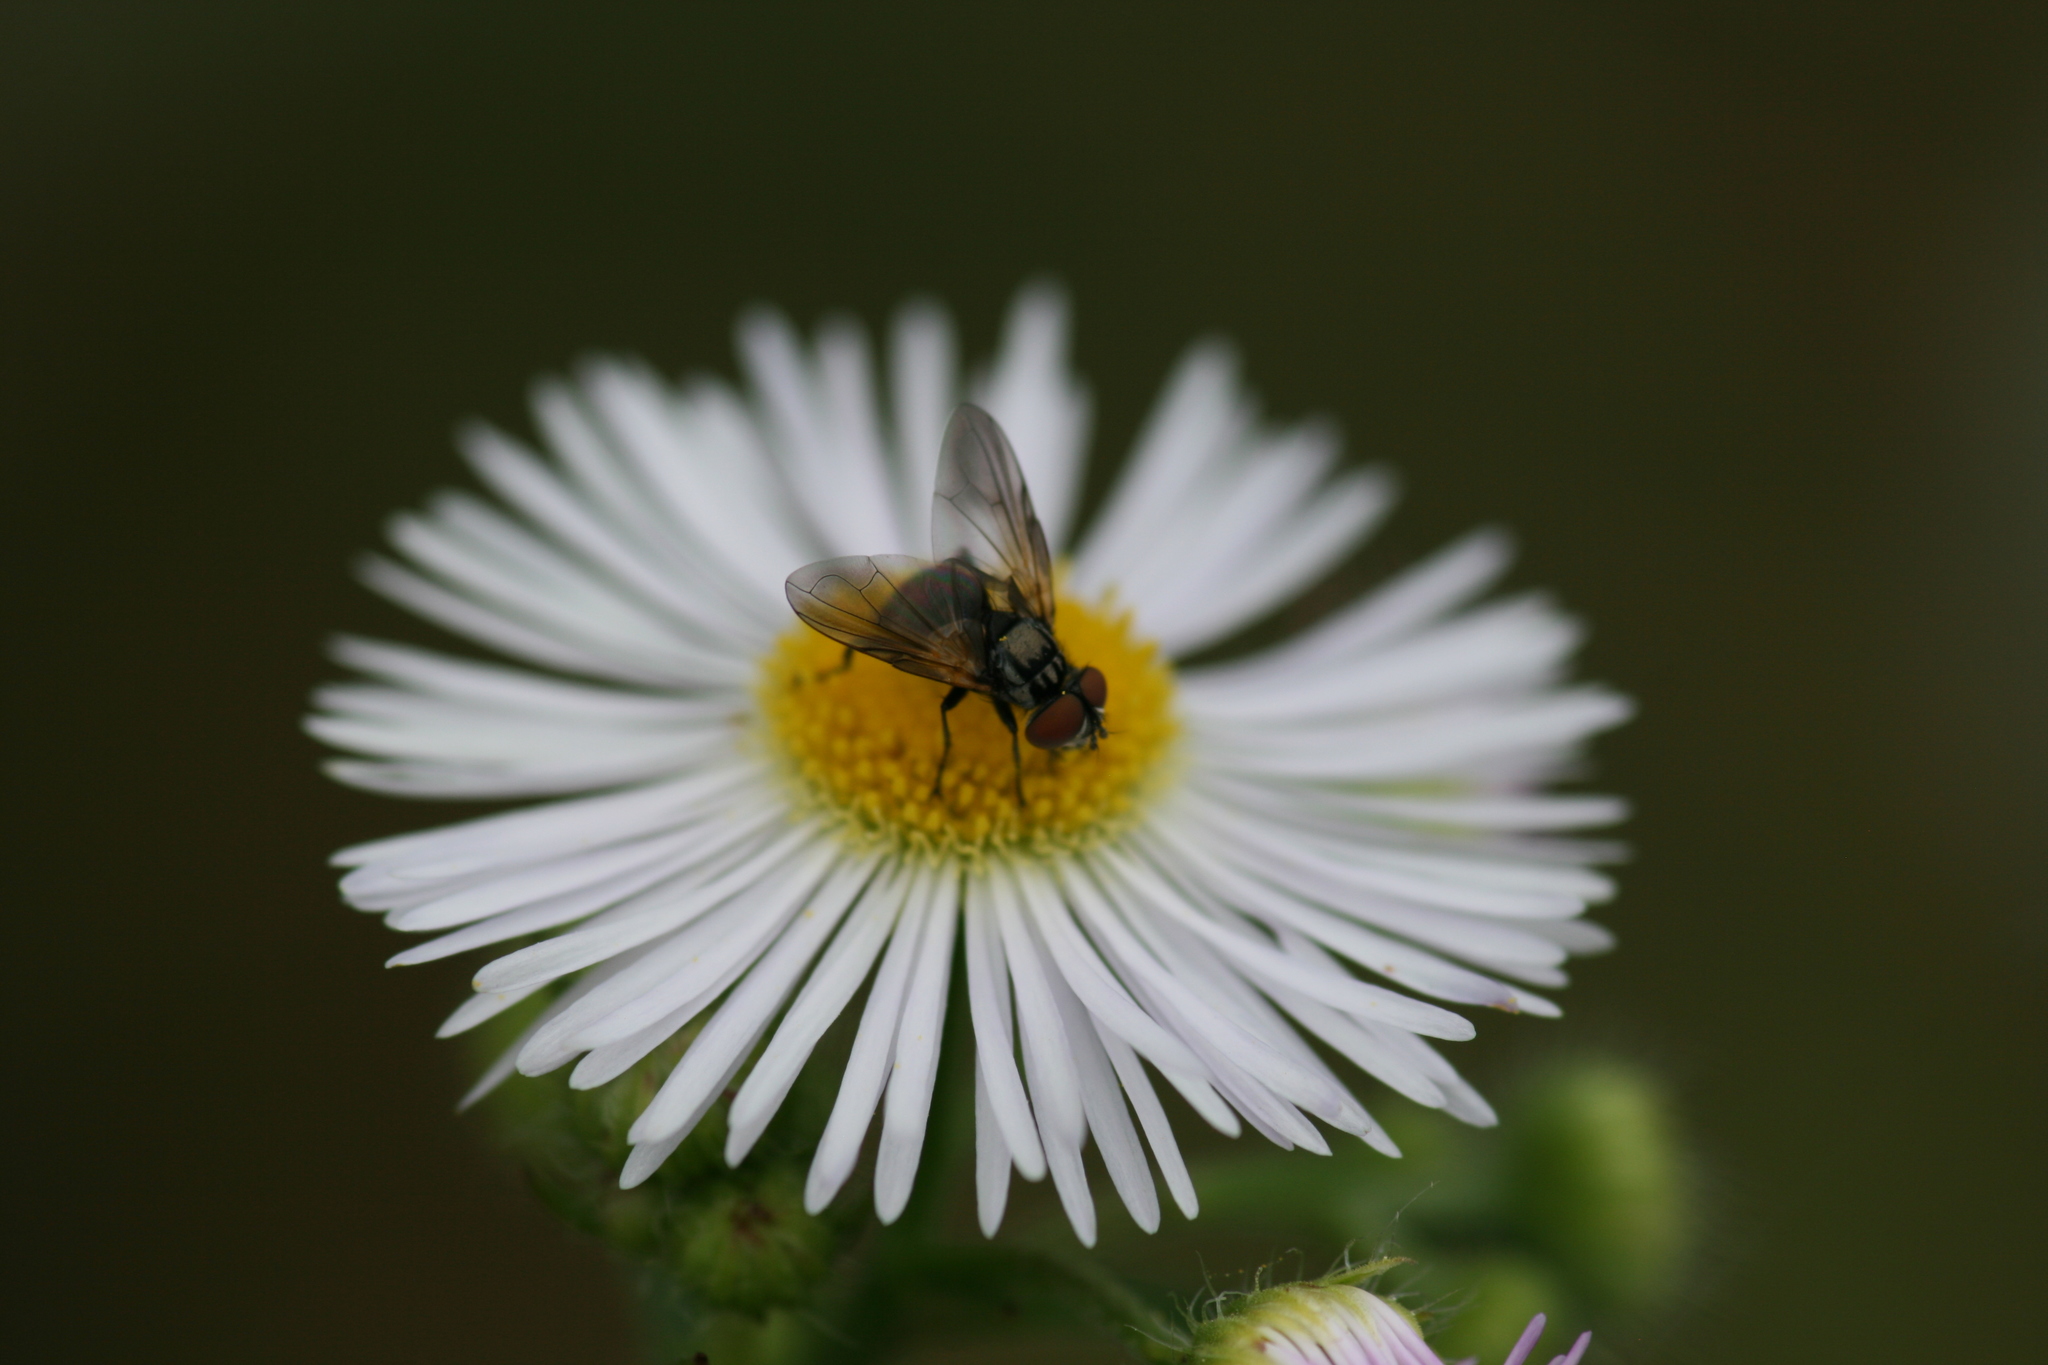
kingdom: Animalia
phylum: Arthropoda
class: Insecta
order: Diptera
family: Tachinidae
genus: Phasia
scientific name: Phasia obesa
